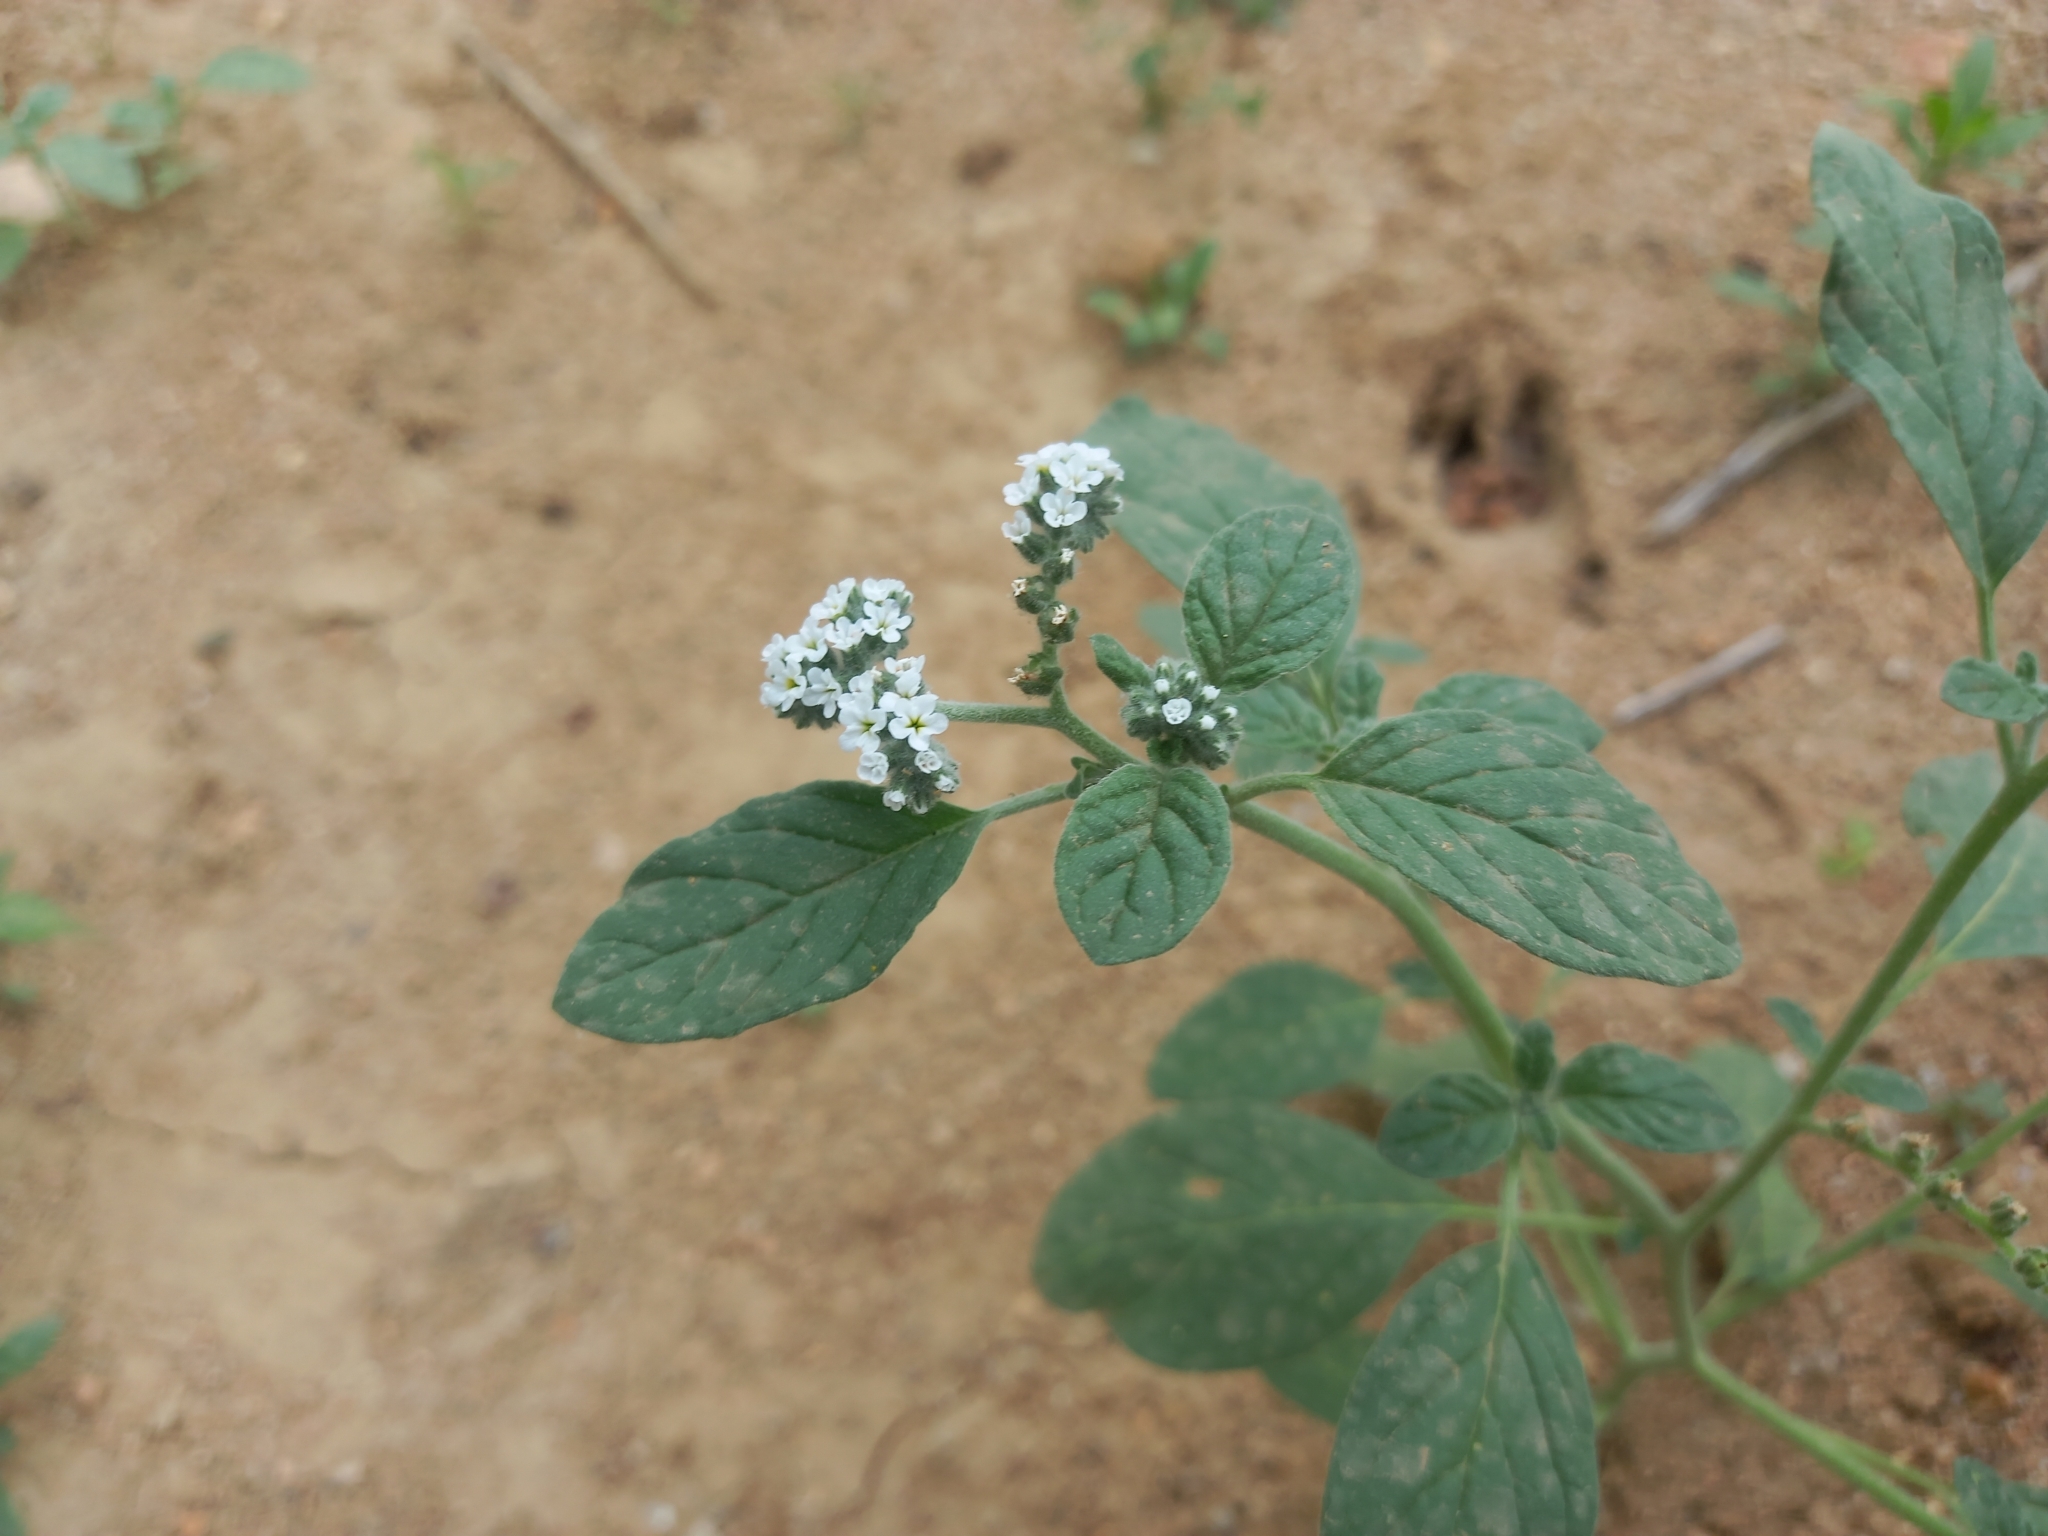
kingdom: Plantae
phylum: Tracheophyta
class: Magnoliopsida
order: Boraginales
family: Heliotropiaceae
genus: Heliotropium
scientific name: Heliotropium europaeum
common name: European heliotrope
